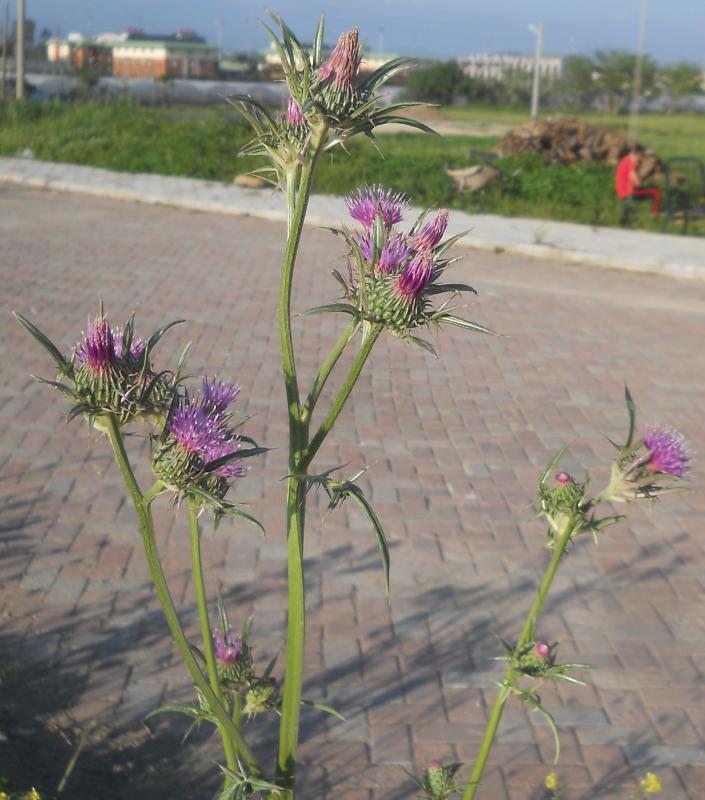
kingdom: Plantae
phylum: Tracheophyta
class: Magnoliopsida
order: Asterales
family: Asteraceae
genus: Notobasis
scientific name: Notobasis syriaca
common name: Syrian thistle
